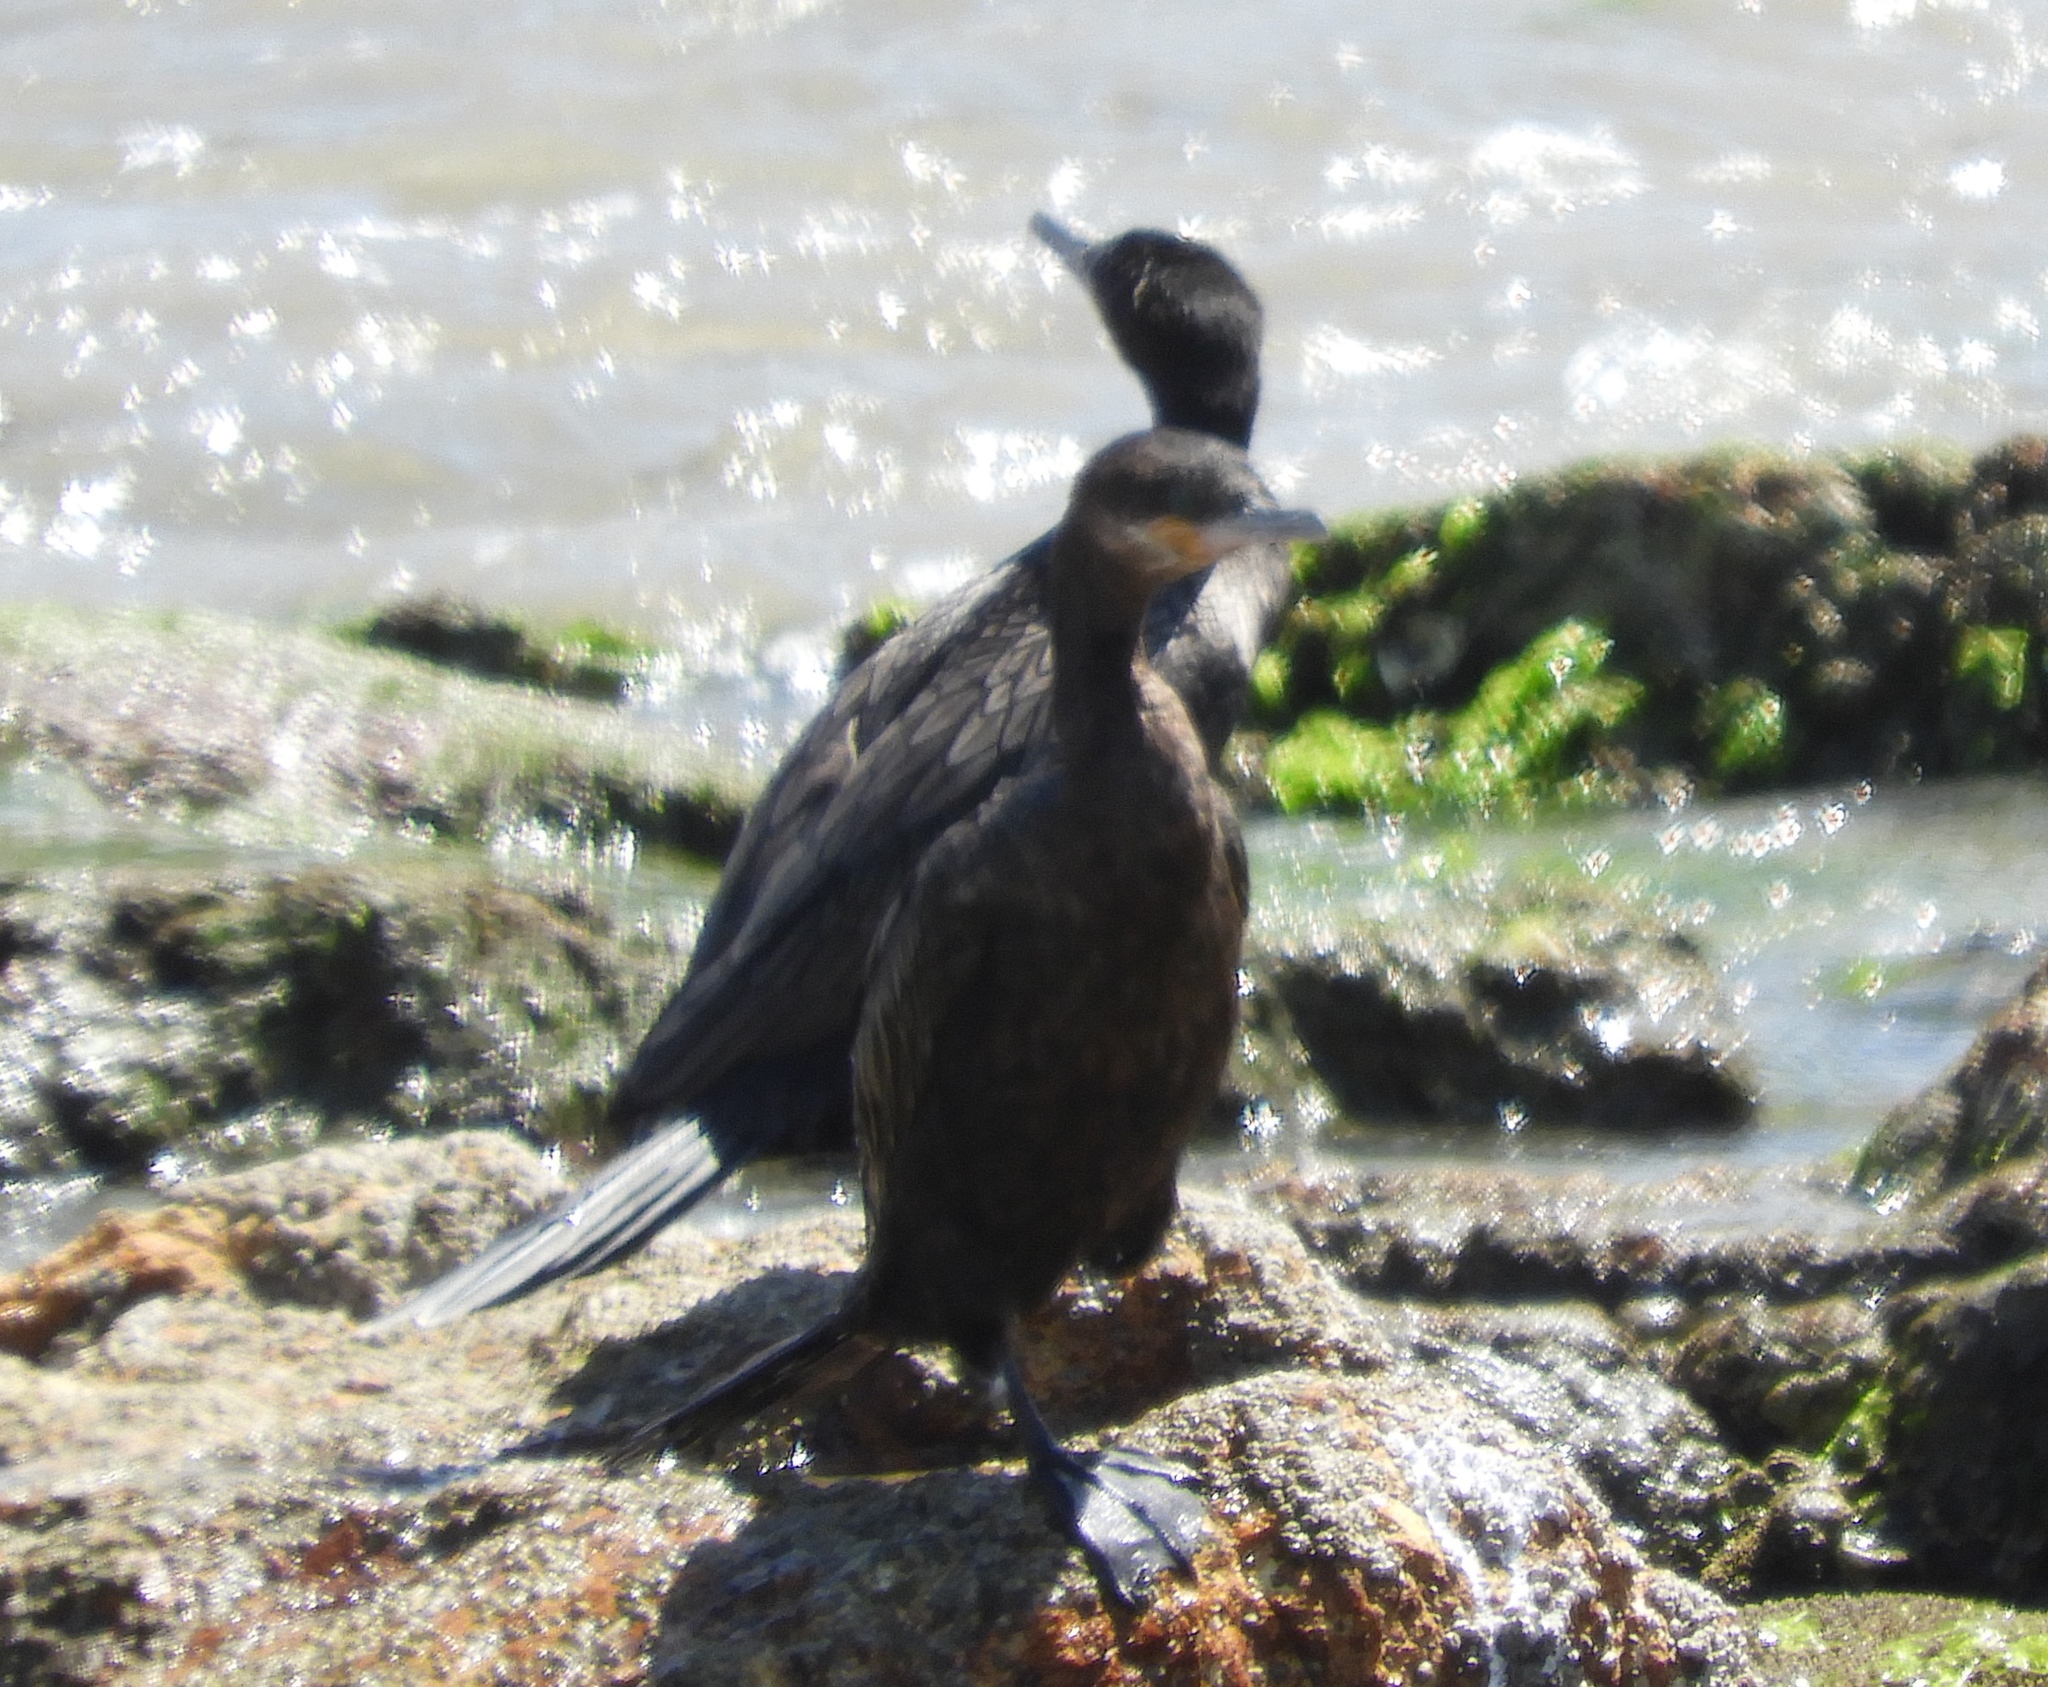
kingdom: Animalia
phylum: Chordata
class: Aves
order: Suliformes
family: Phalacrocoracidae
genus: Phalacrocorax
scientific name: Phalacrocorax brasilianus
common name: Neotropic cormorant
